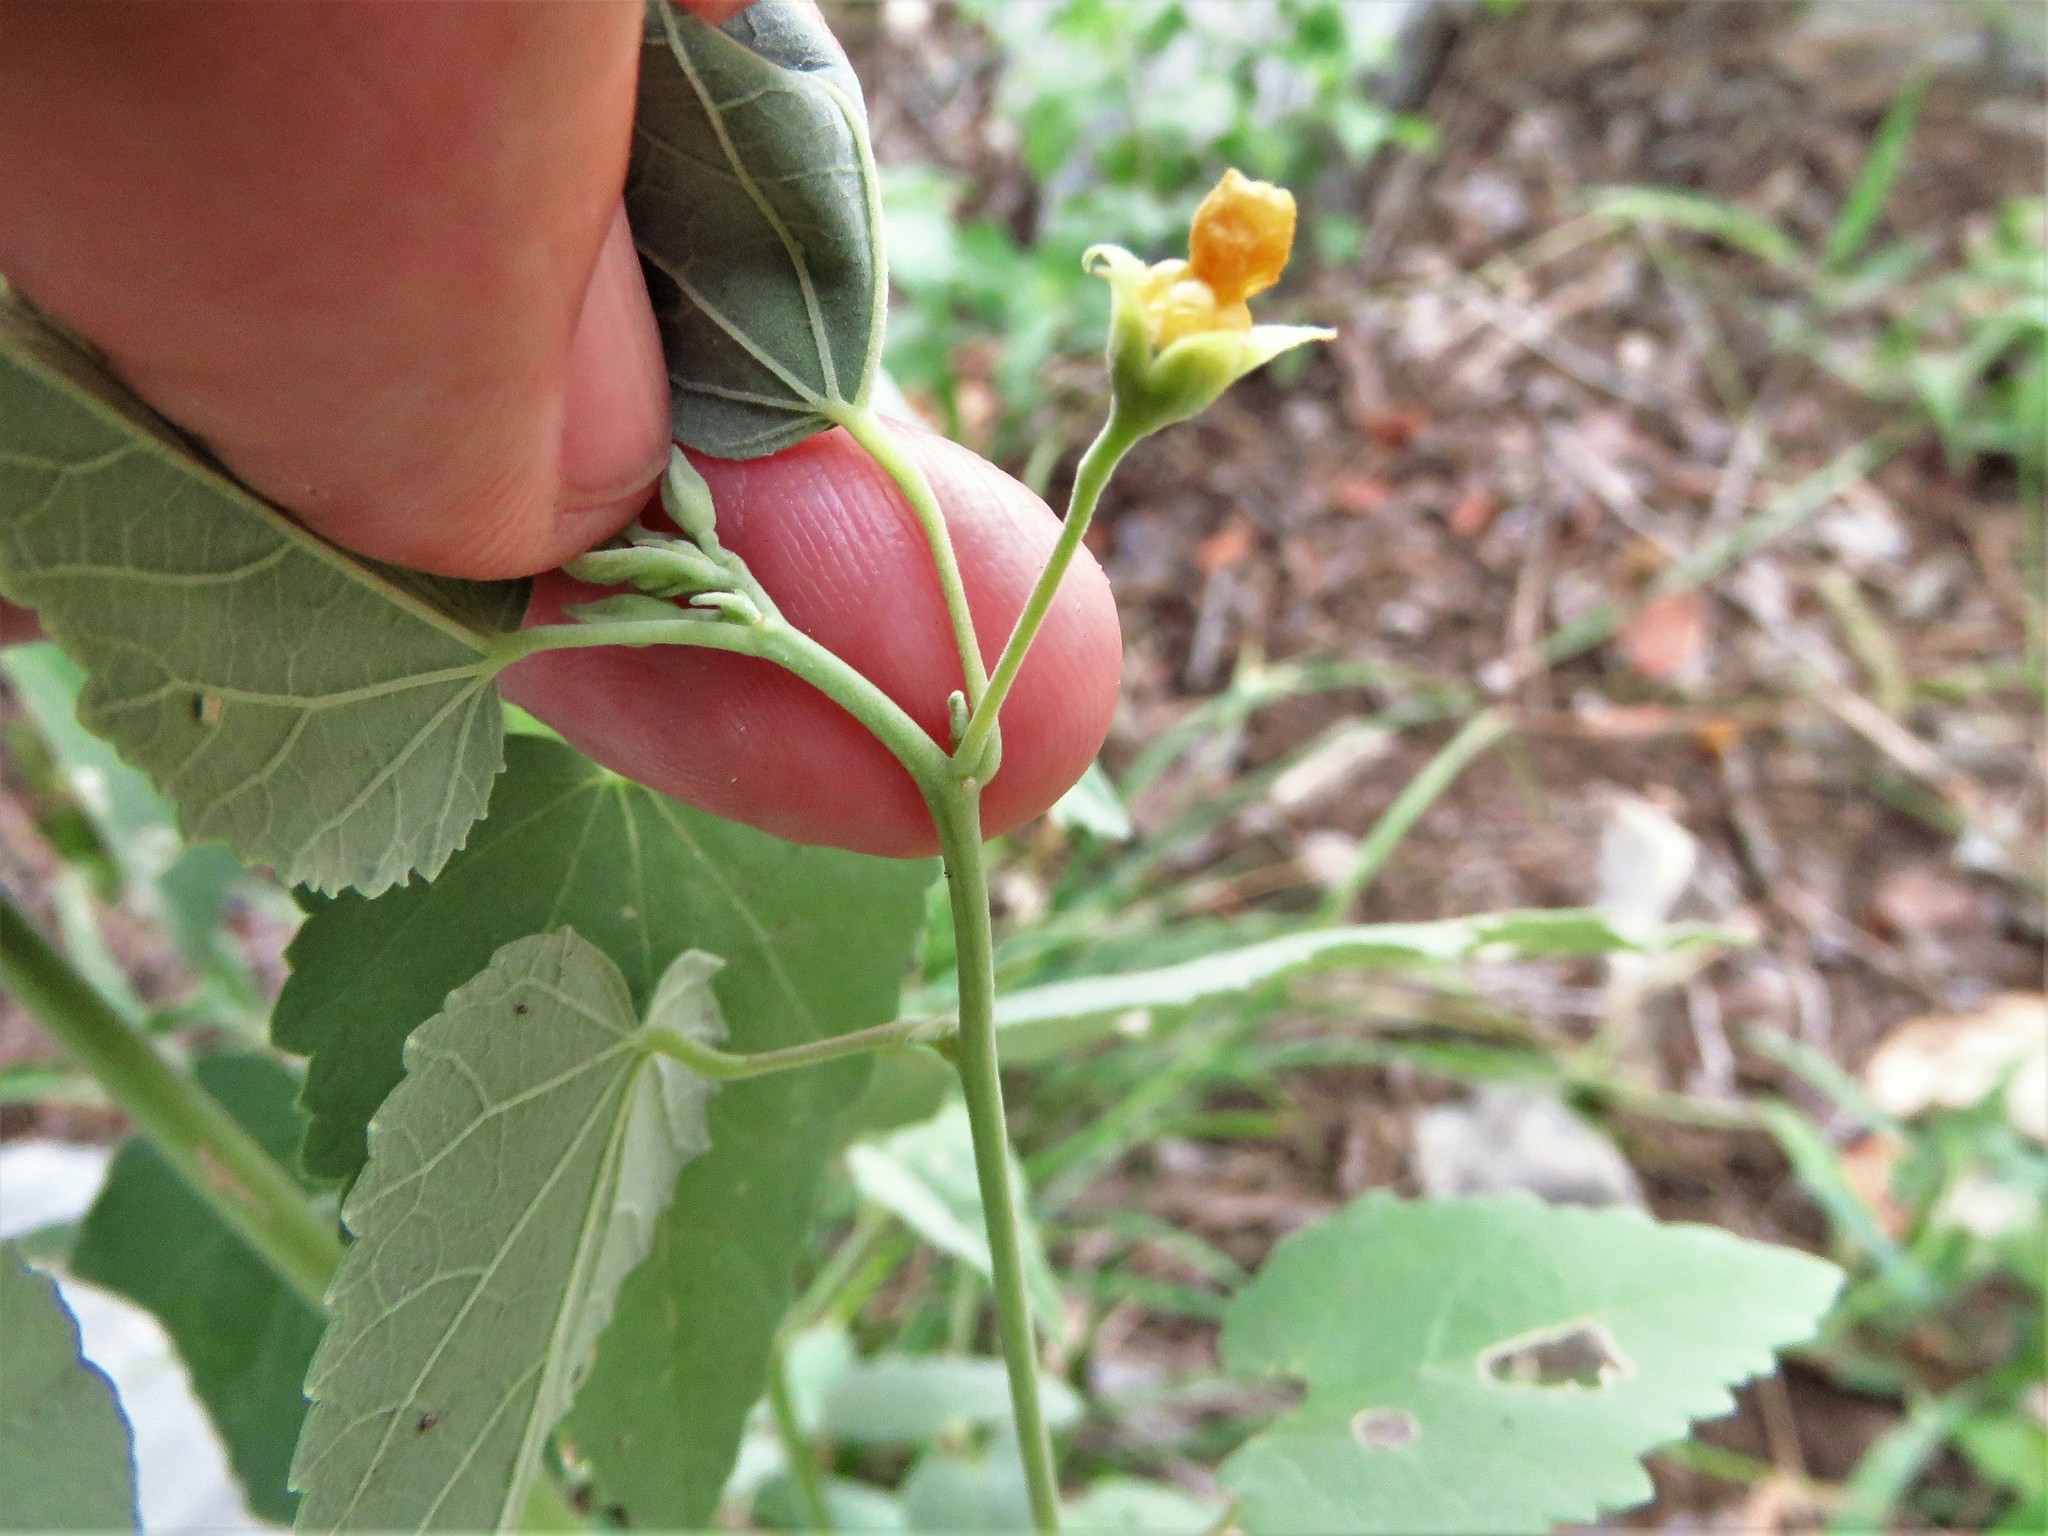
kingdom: Plantae
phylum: Tracheophyta
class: Magnoliopsida
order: Malvales
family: Malvaceae
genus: Abutilon
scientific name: Abutilon fruticosum
